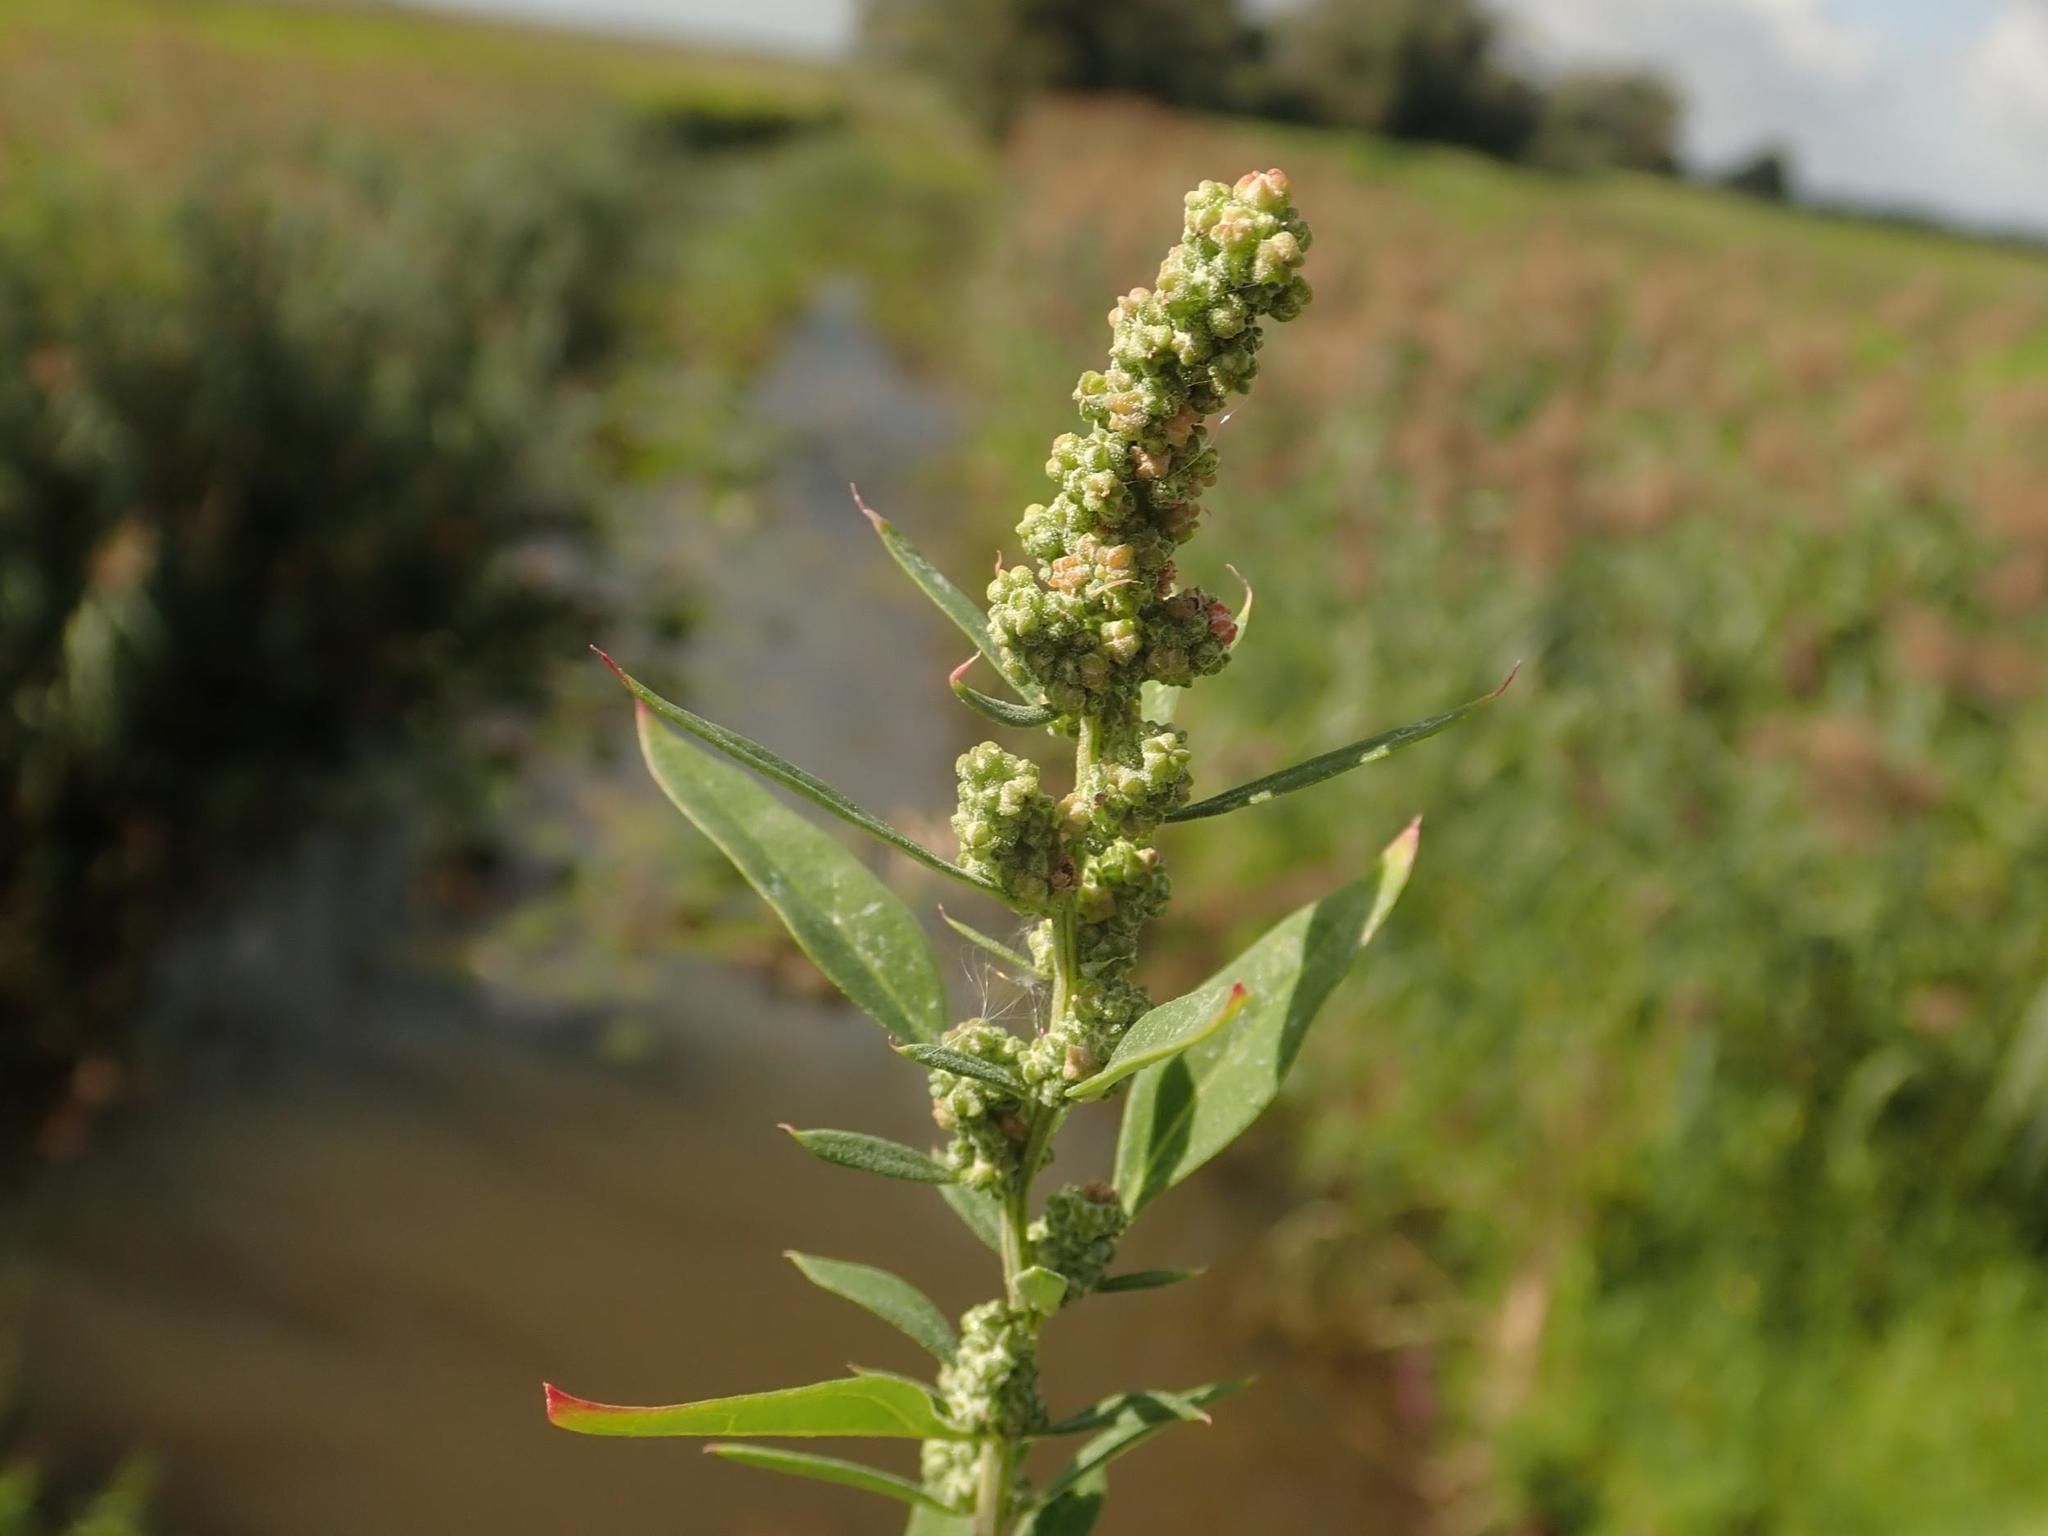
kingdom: Plantae
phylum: Tracheophyta
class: Magnoliopsida
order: Caryophyllales
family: Amaranthaceae
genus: Chenopodium
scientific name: Chenopodium album
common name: Fat-hen
